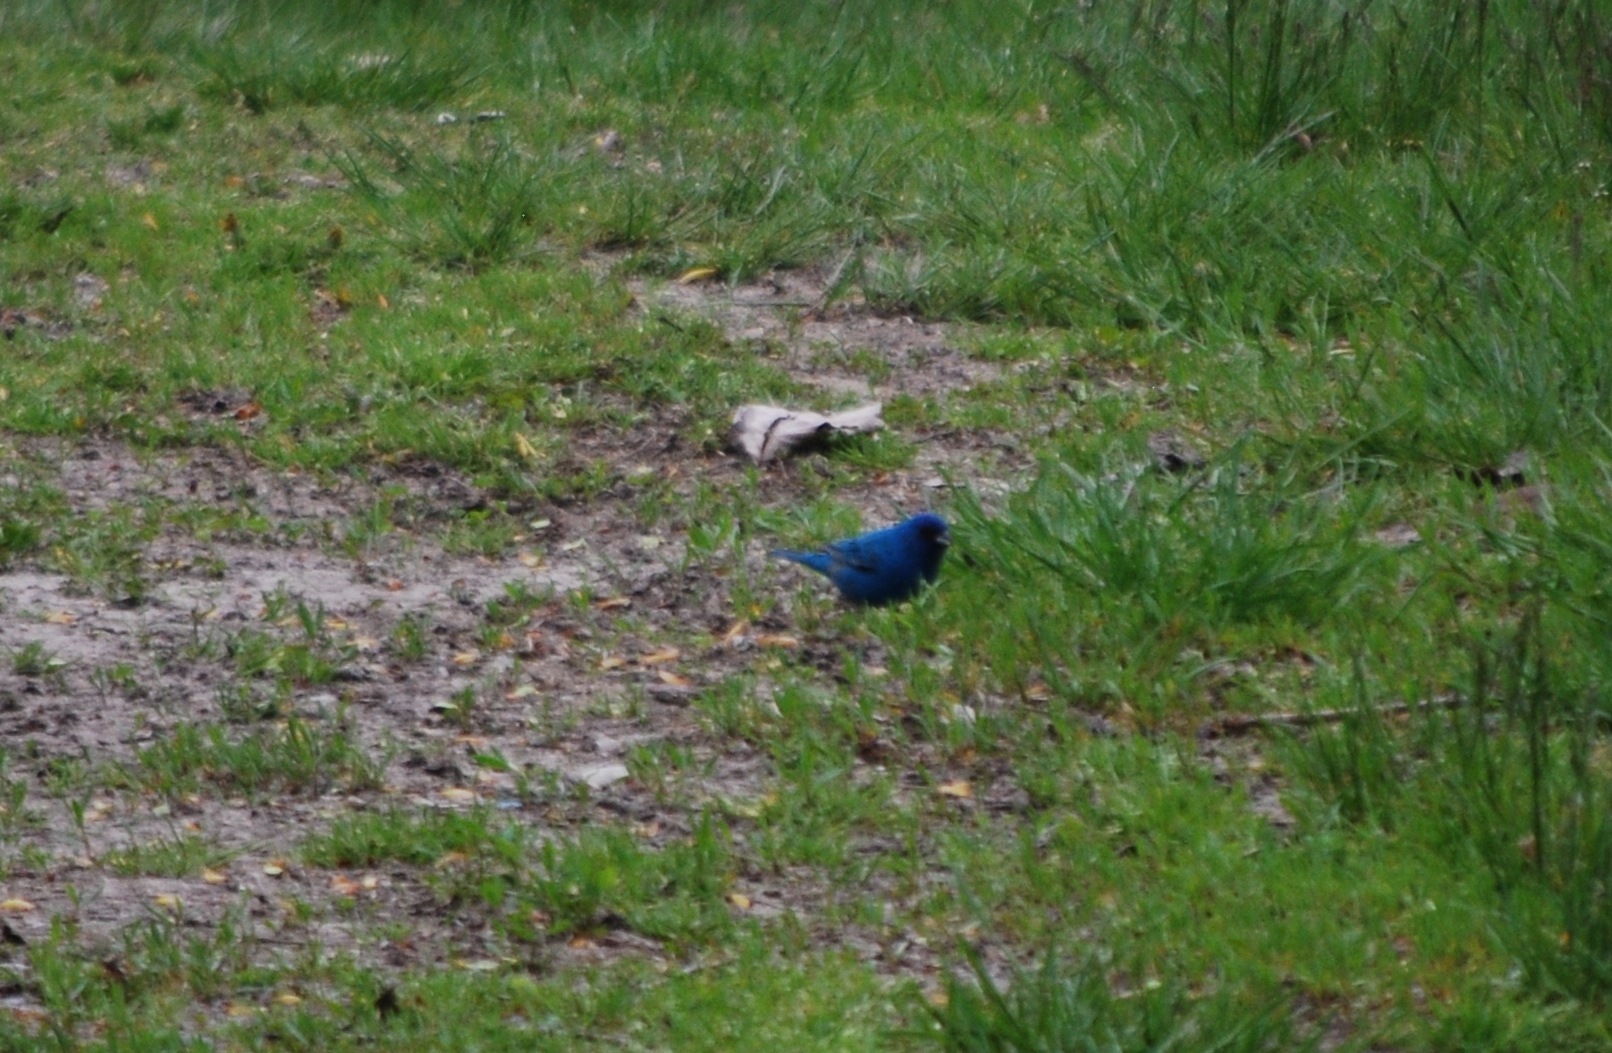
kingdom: Animalia
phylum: Chordata
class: Aves
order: Passeriformes
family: Cardinalidae
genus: Passerina
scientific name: Passerina cyanea
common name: Indigo bunting
